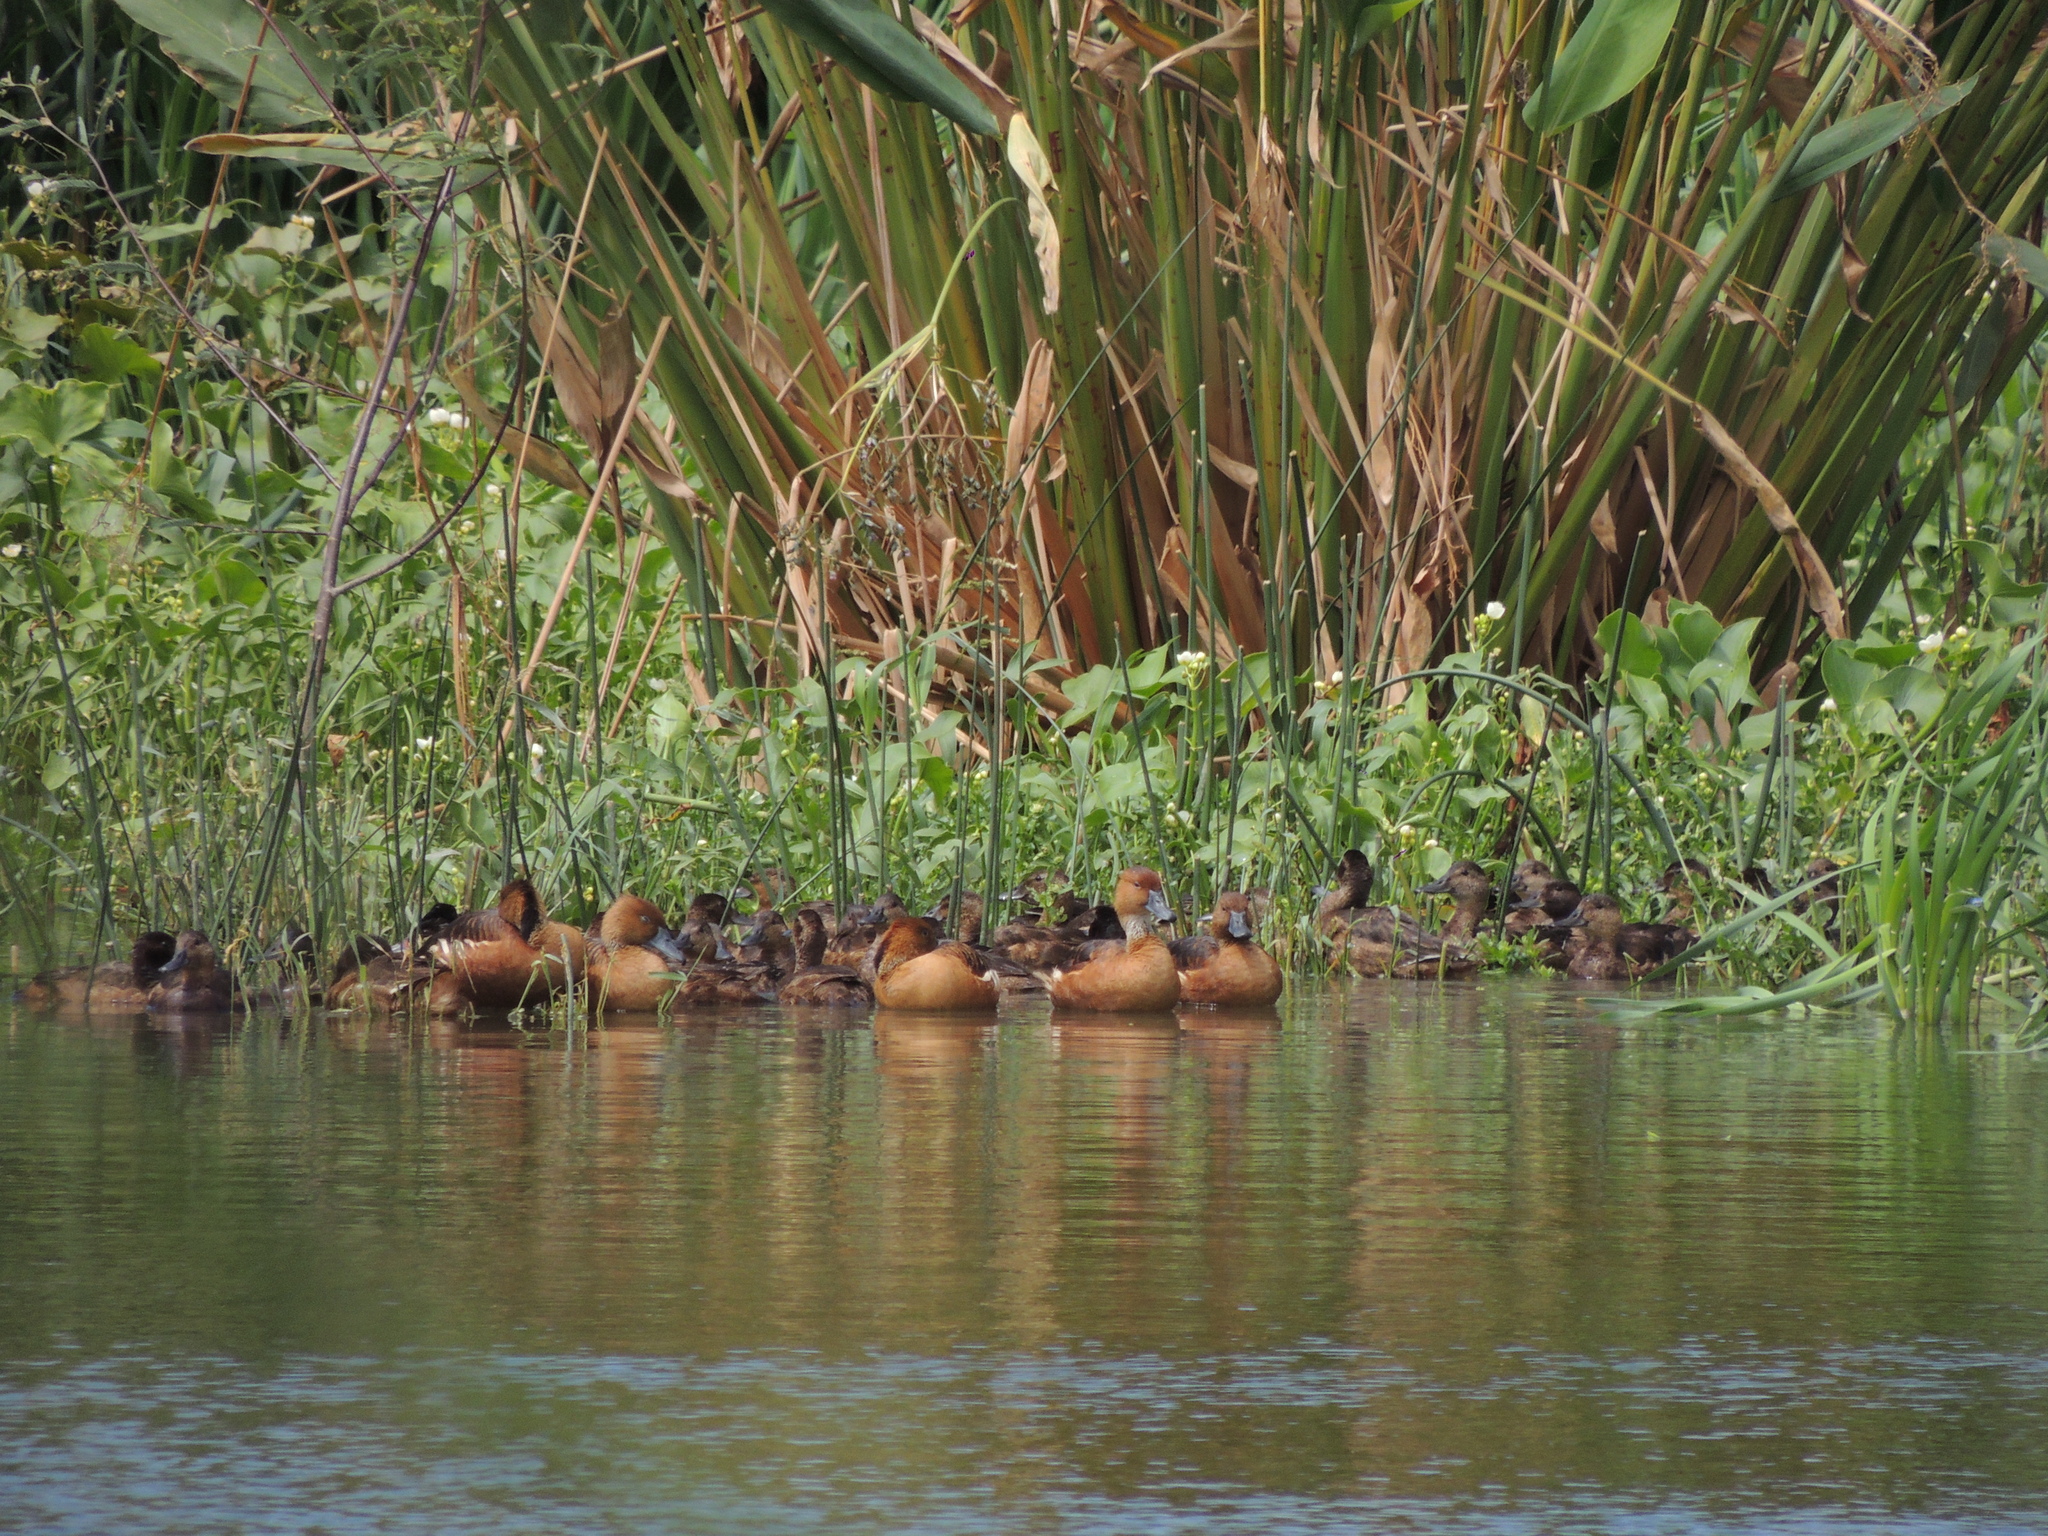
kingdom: Animalia
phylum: Chordata
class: Aves
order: Anseriformes
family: Anatidae
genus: Heteronetta
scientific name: Heteronetta atricapilla
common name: Black-headed duck
